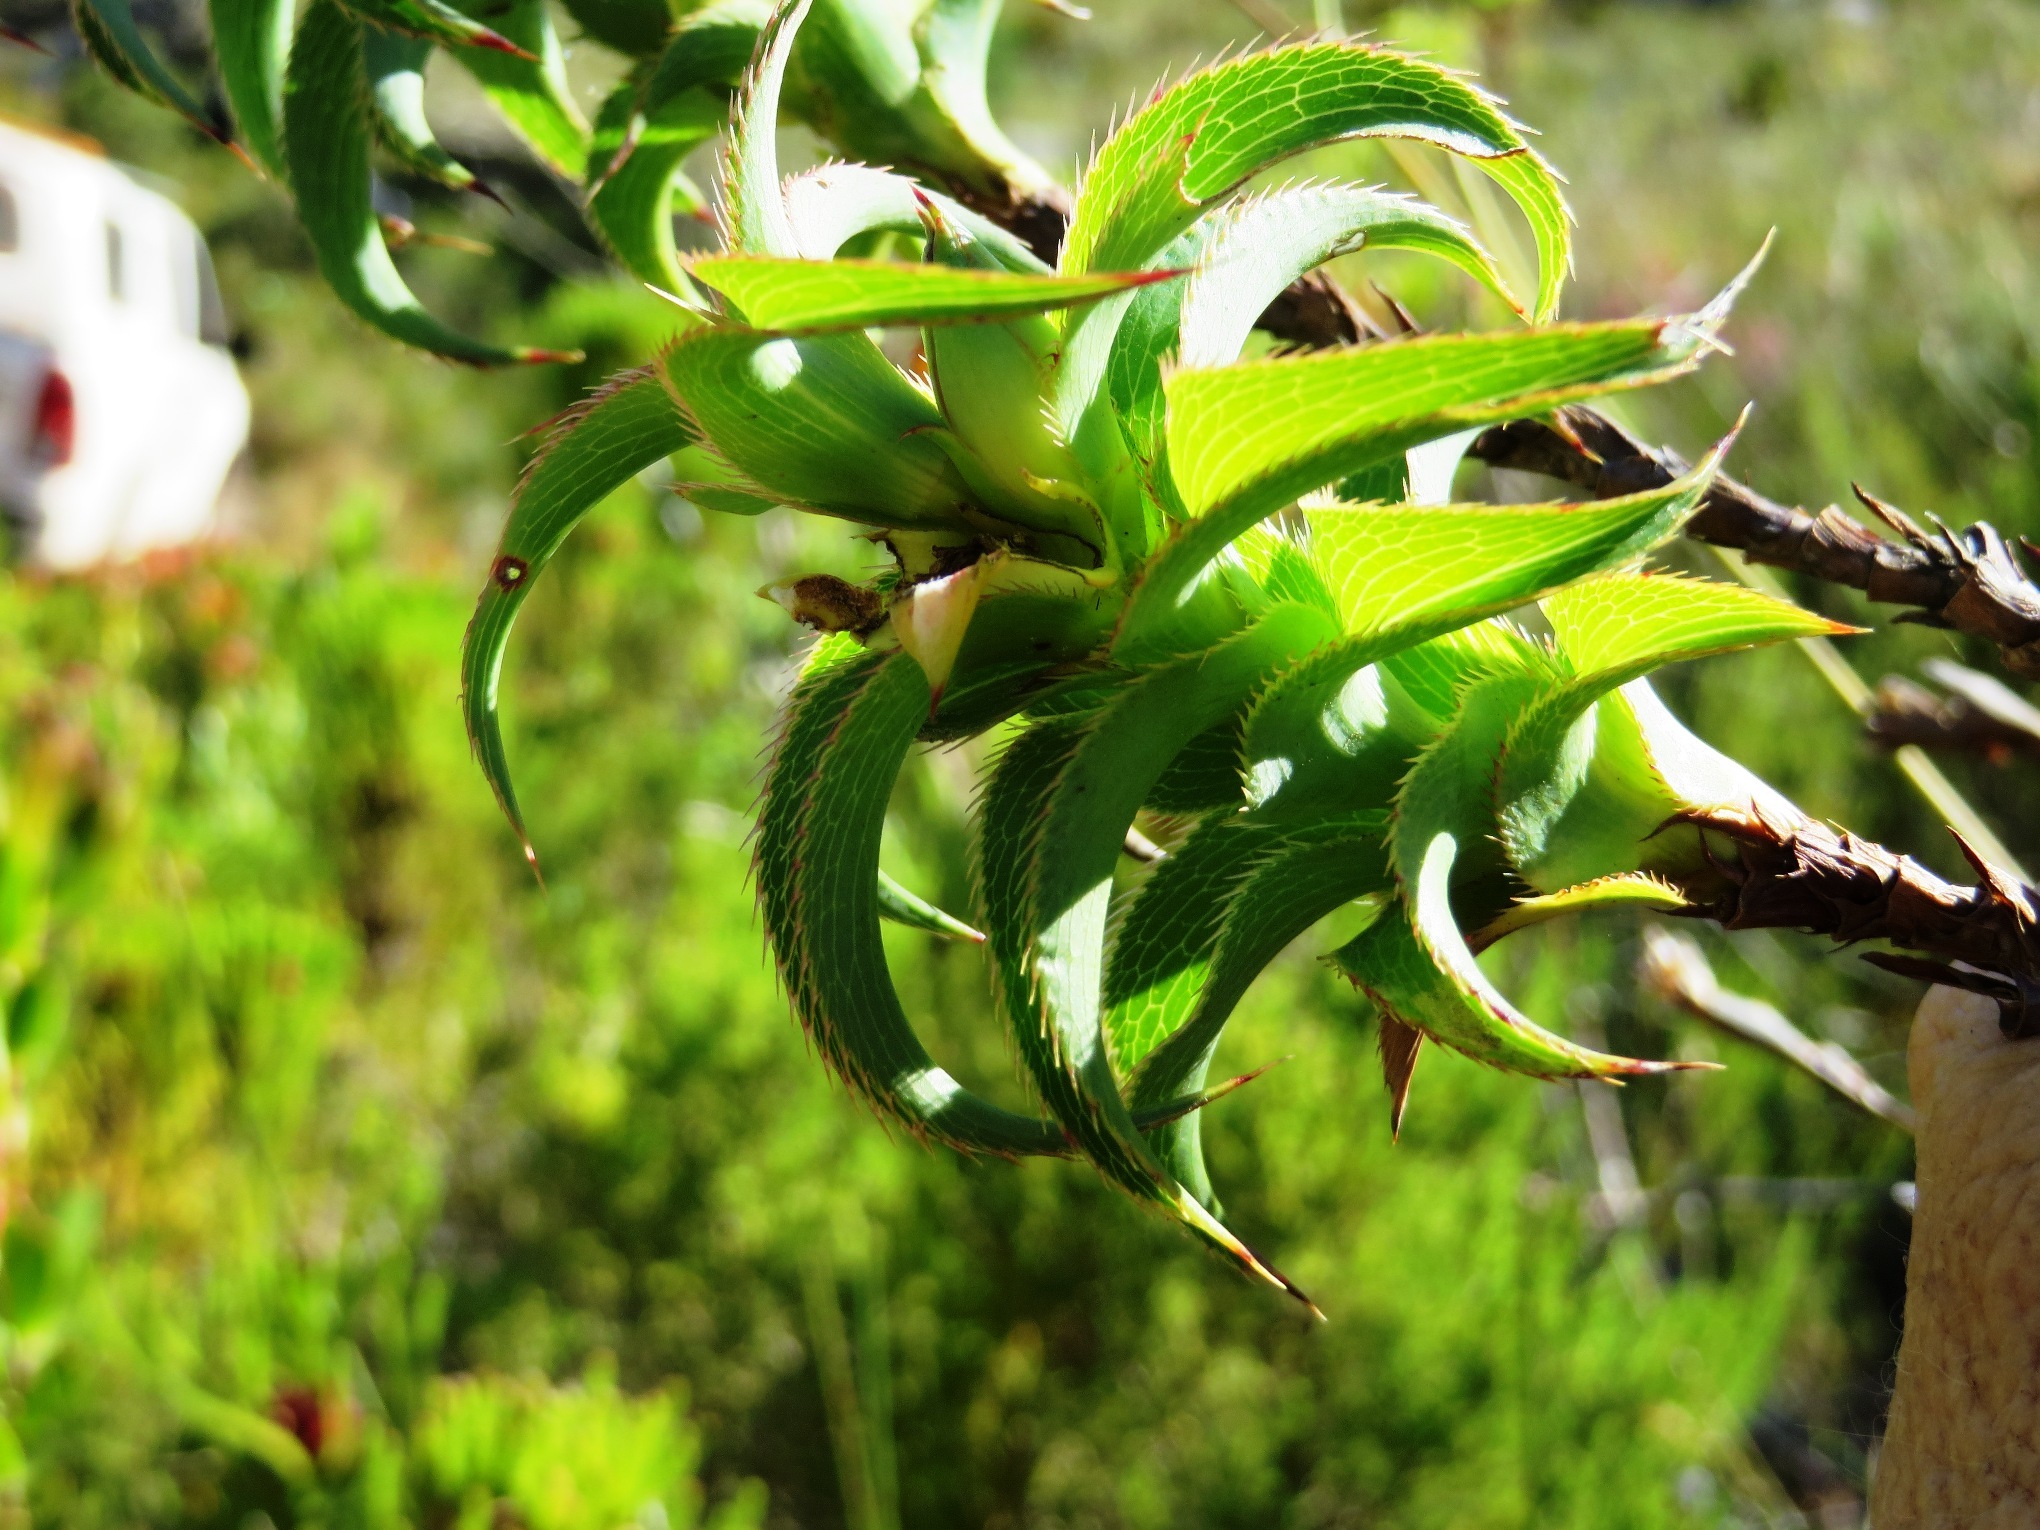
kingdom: Plantae
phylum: Tracheophyta
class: Magnoliopsida
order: Rosales
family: Rosaceae
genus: Cliffortia
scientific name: Cliffortia recurvata
